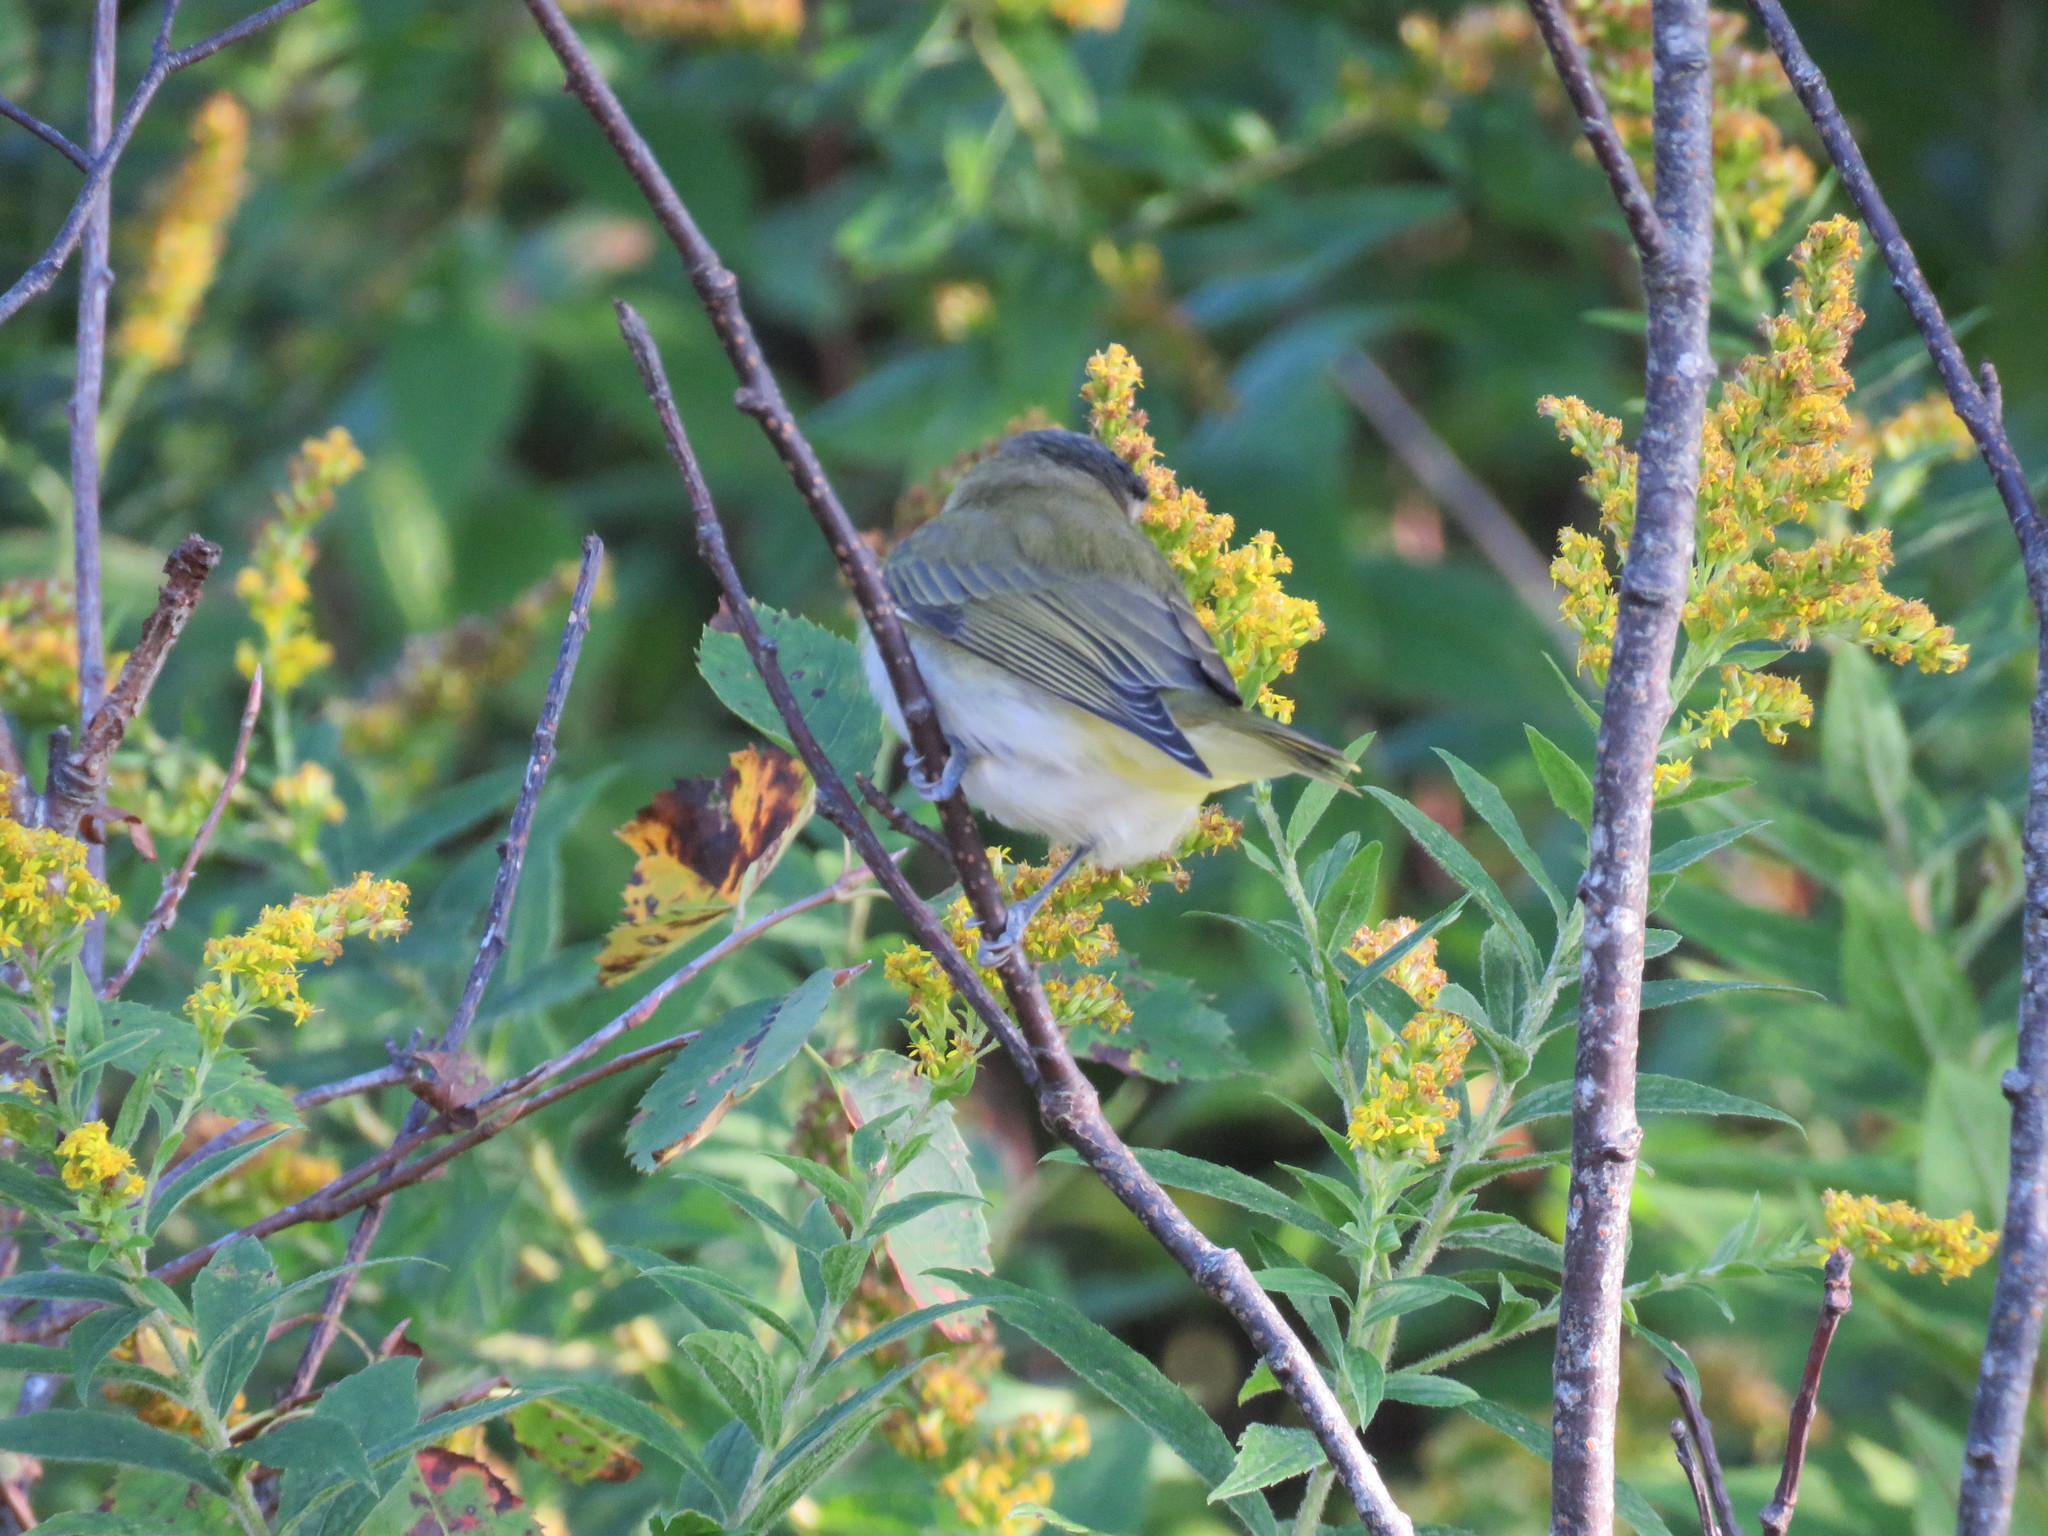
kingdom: Animalia
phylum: Chordata
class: Aves
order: Passeriformes
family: Vireonidae
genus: Vireo
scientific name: Vireo olivaceus
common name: Red-eyed vireo
